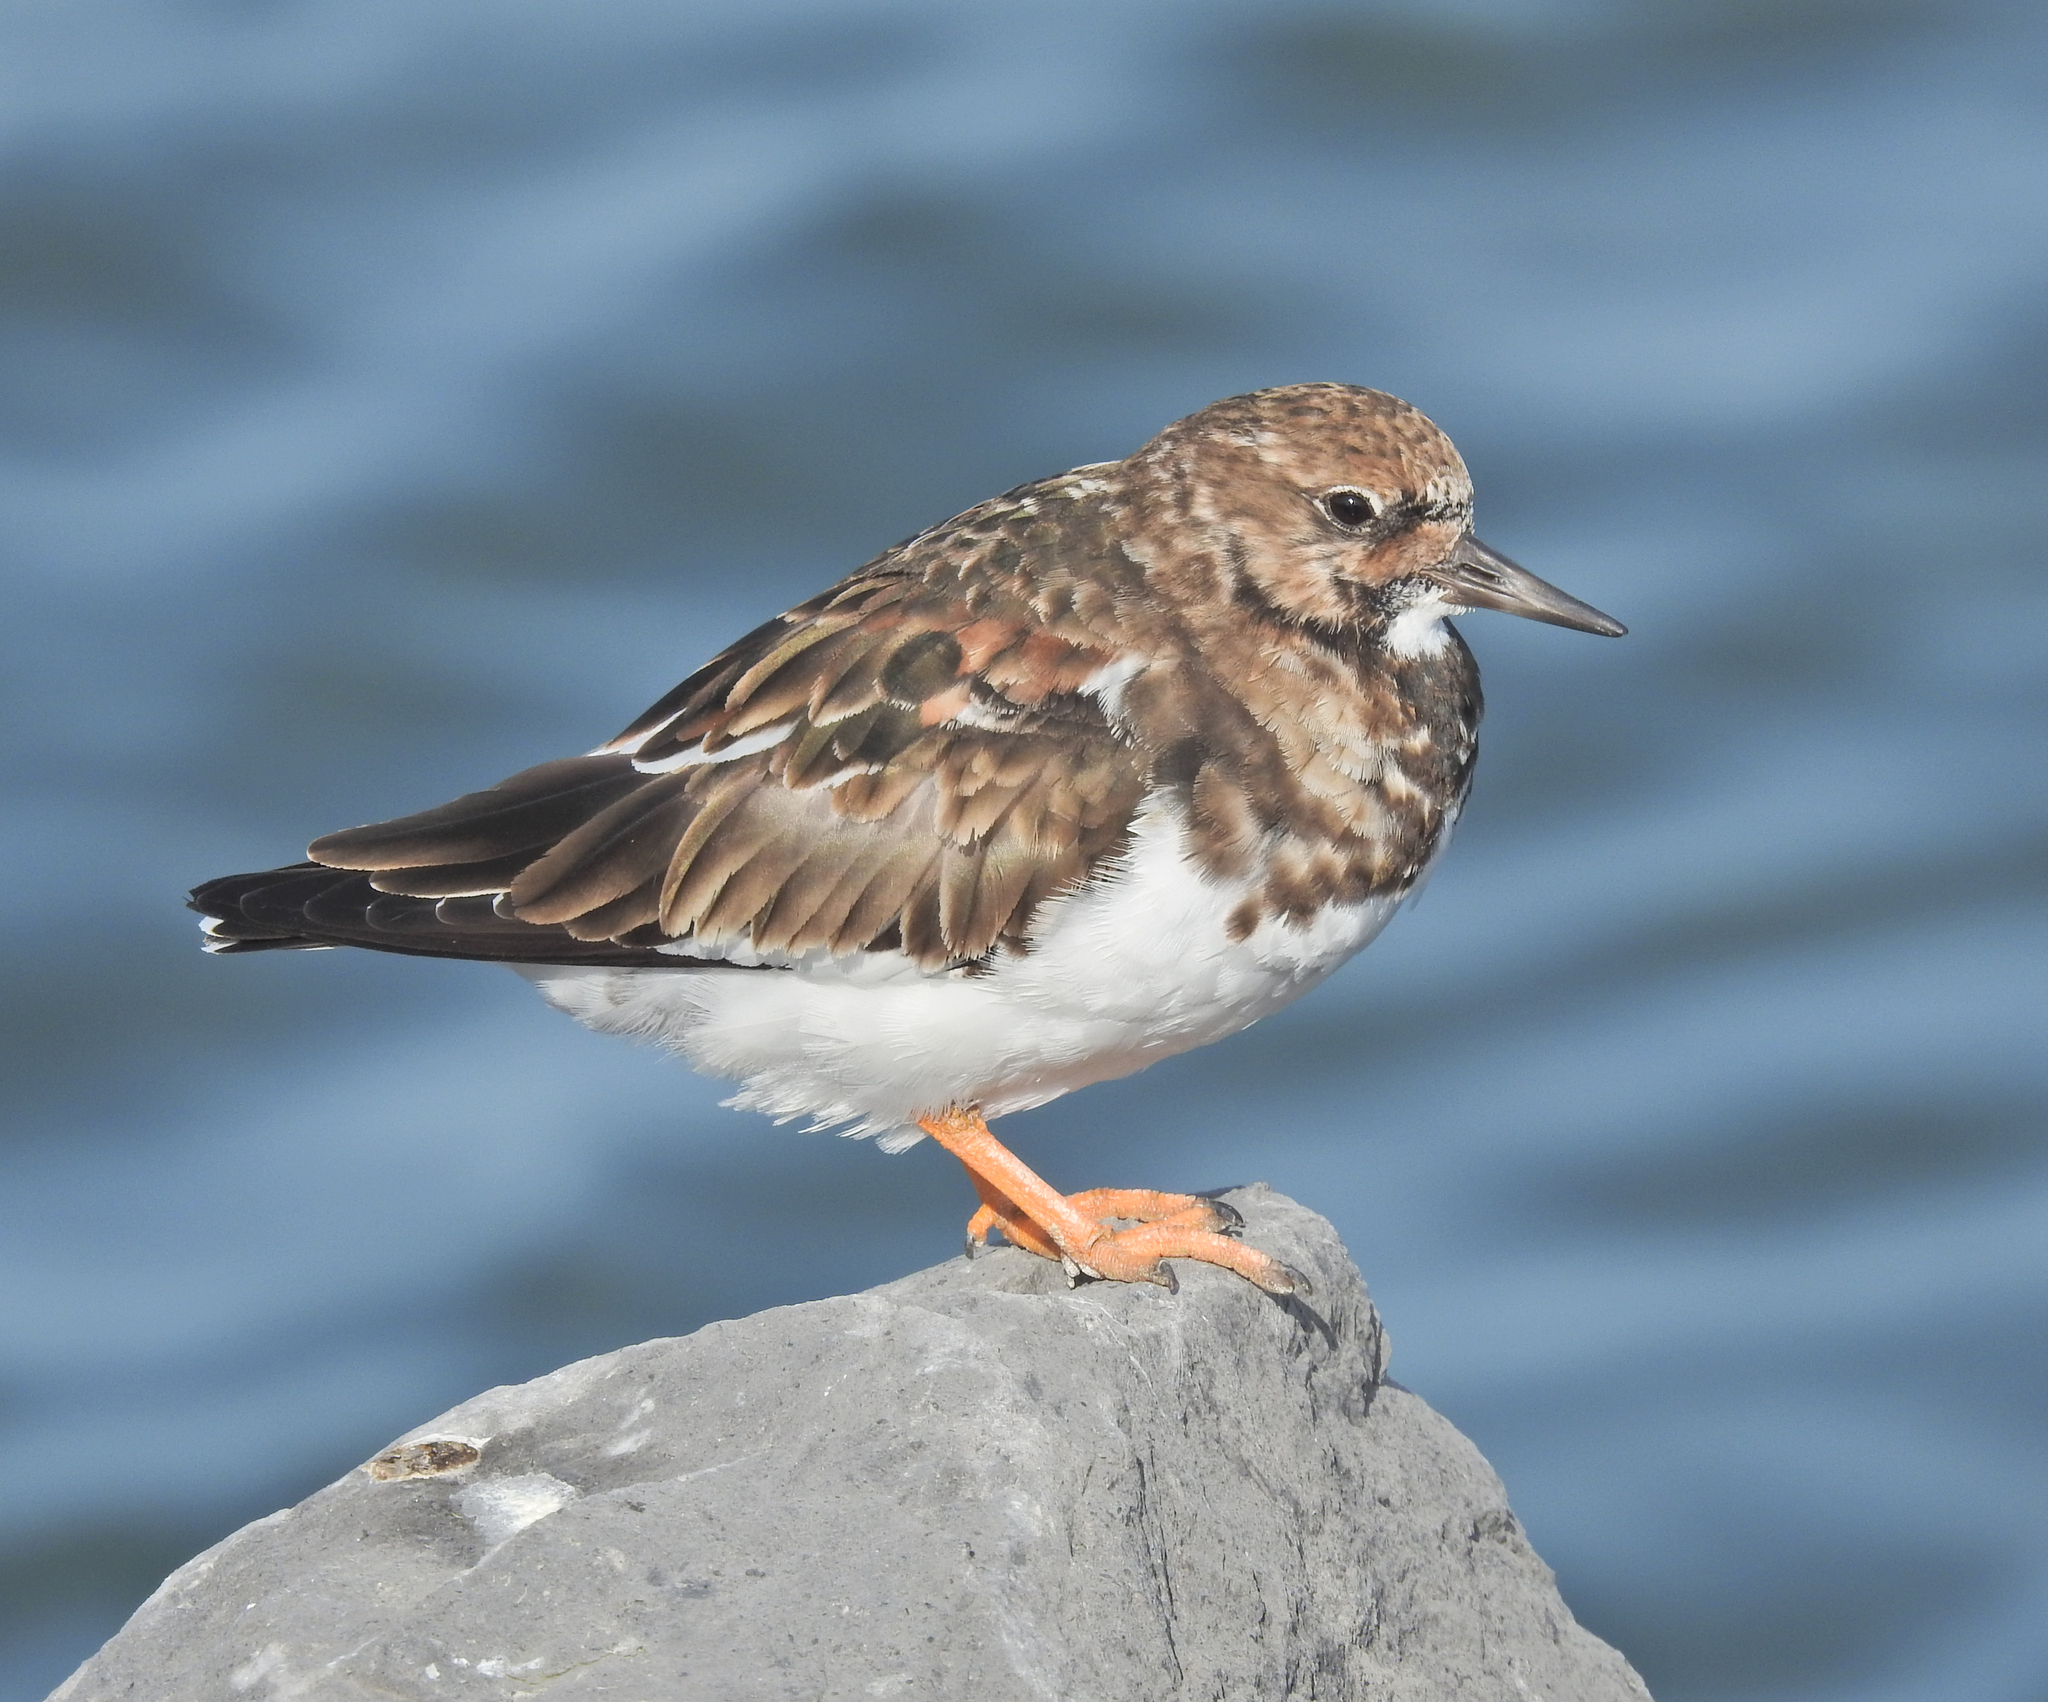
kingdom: Animalia
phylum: Chordata
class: Aves
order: Charadriiformes
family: Scolopacidae
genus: Arenaria
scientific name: Arenaria interpres
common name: Ruddy turnstone
